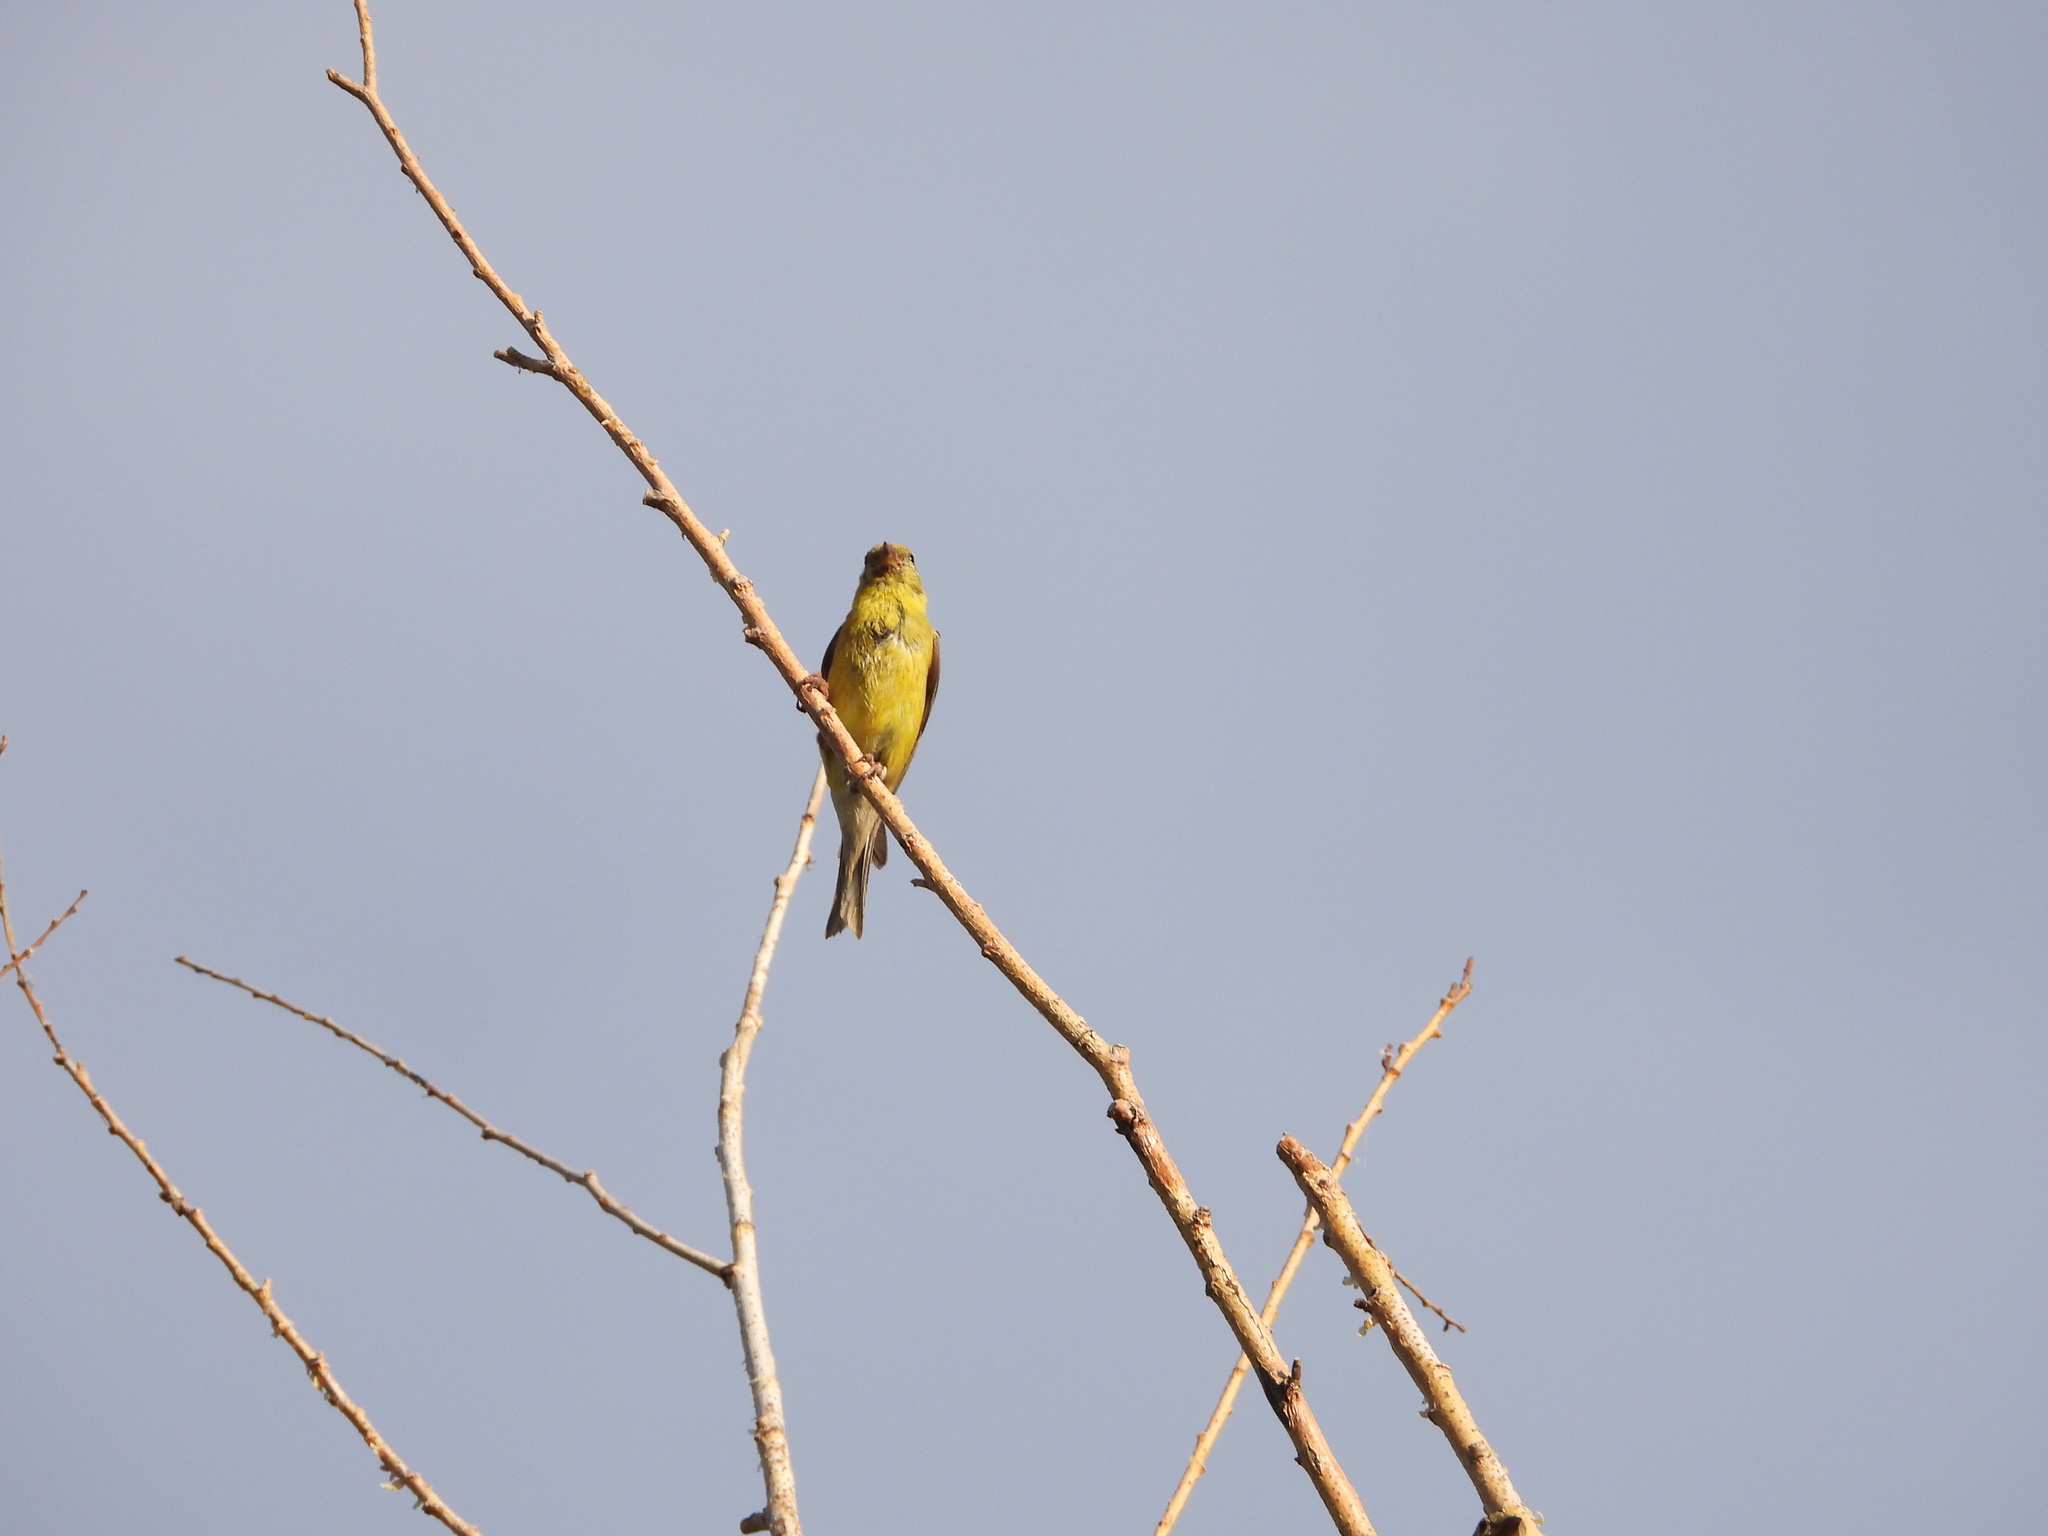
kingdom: Animalia
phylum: Chordata
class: Aves
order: Passeriformes
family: Fringillidae
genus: Spinus
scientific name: Spinus tristis
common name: American goldfinch
